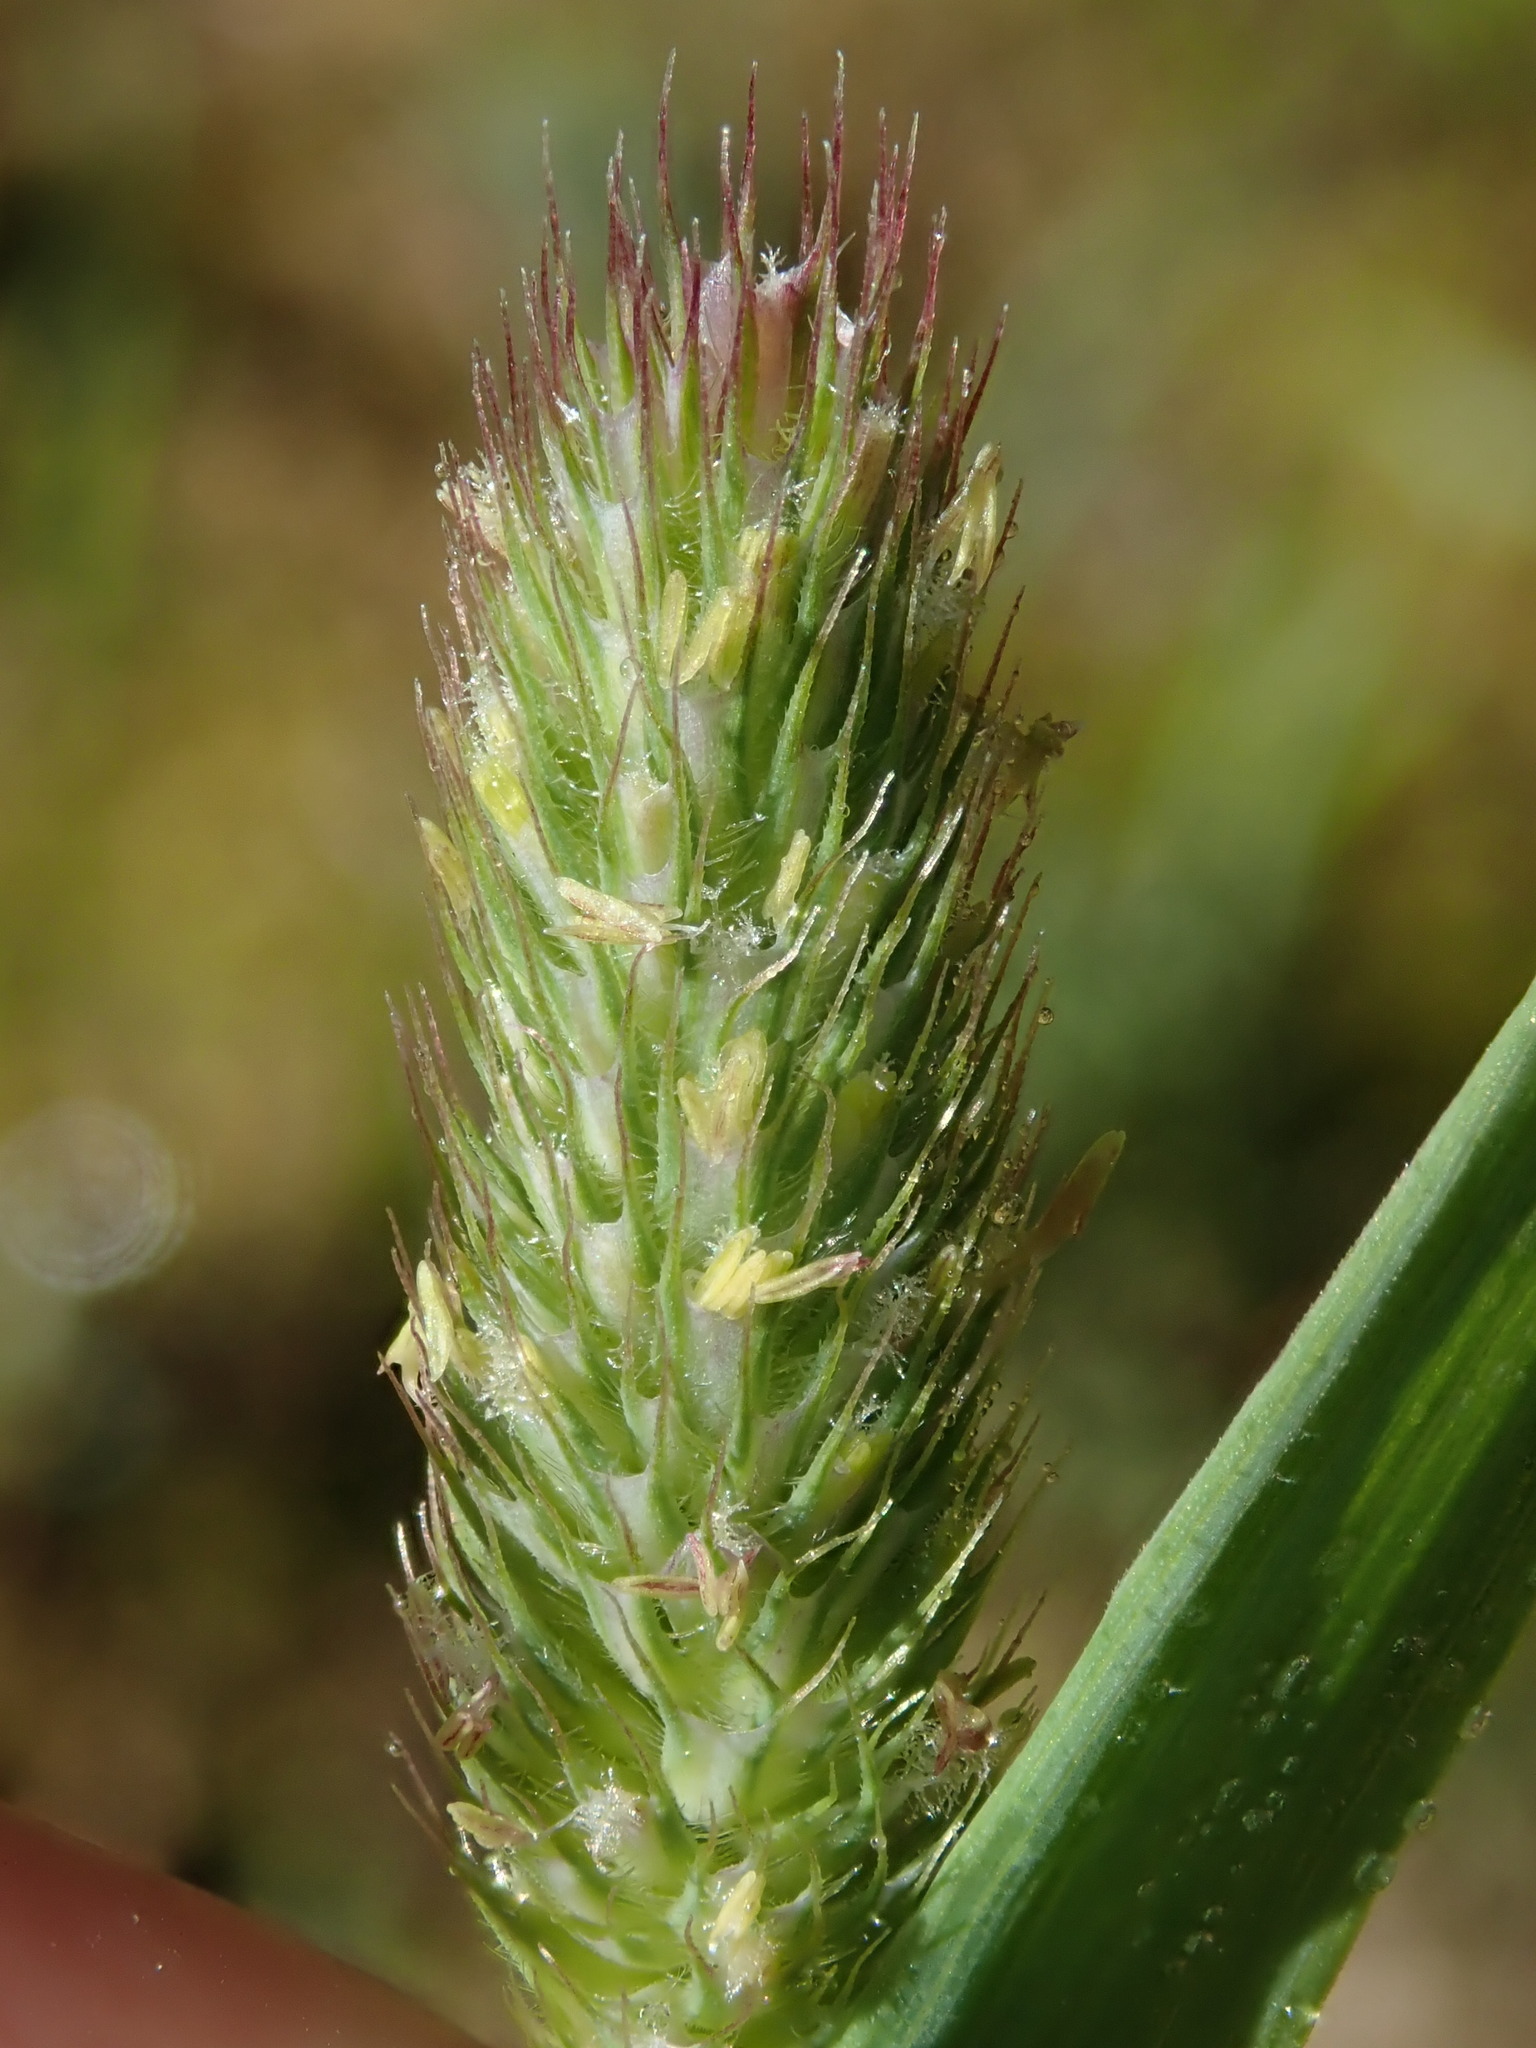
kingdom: Plantae
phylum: Tracheophyta
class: Liliopsida
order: Poales
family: Poaceae
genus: Phleum
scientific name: Phleum alpinum
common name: Alpine cat's-tail
